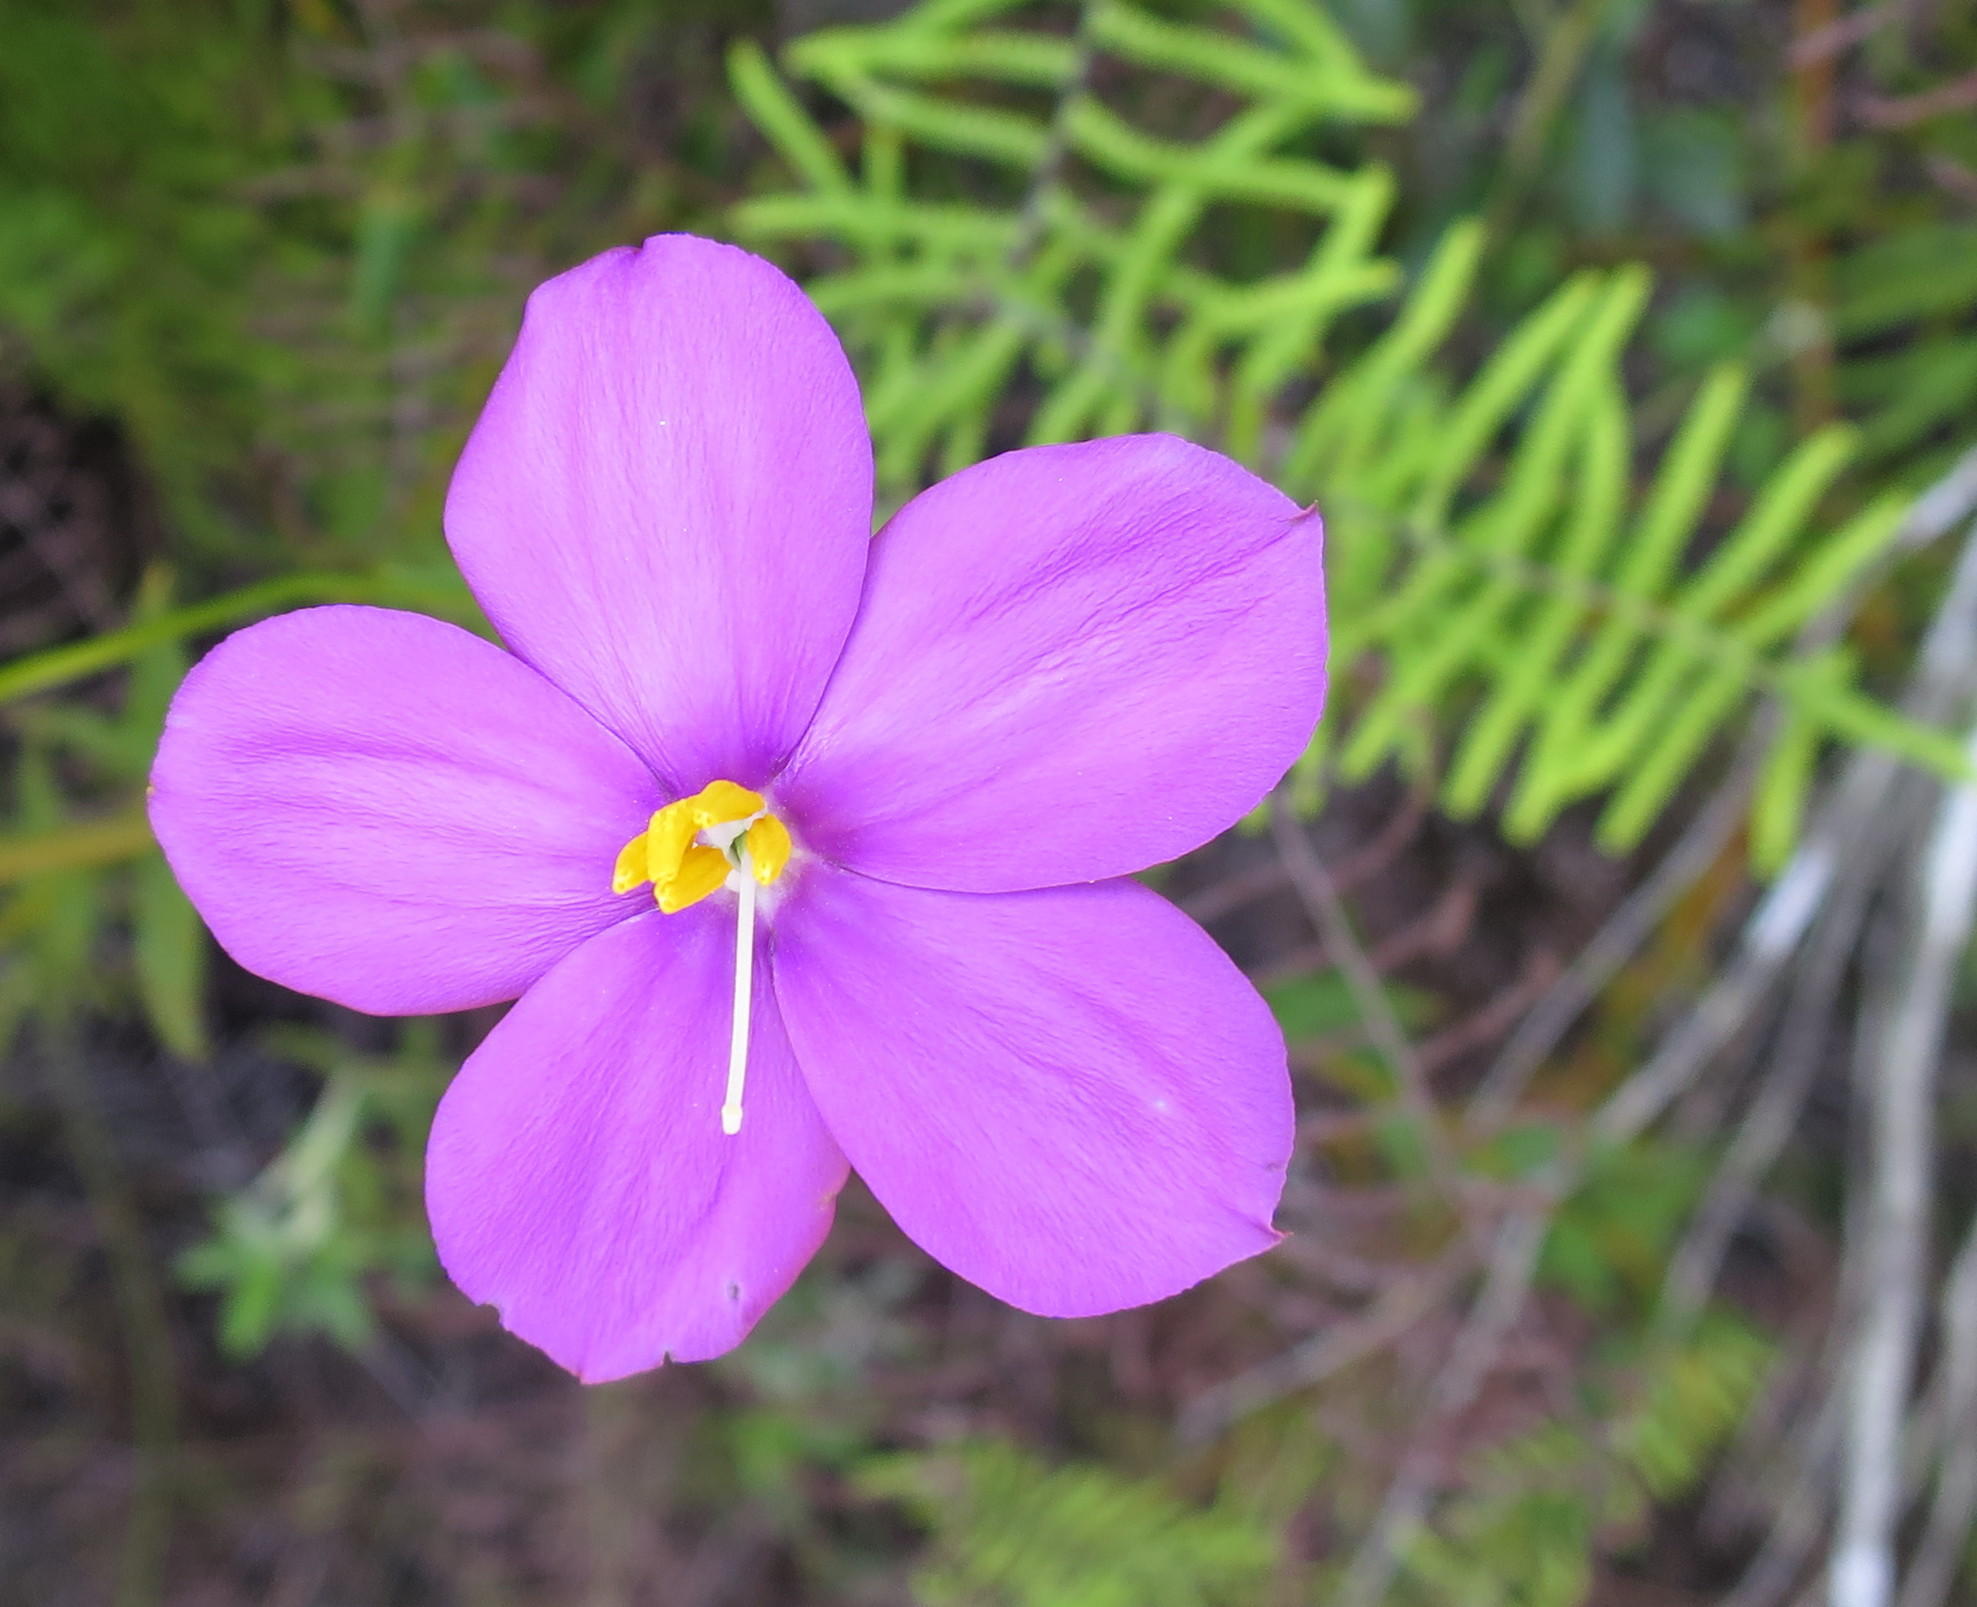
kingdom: Plantae
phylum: Tracheophyta
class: Magnoliopsida
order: Gentianales
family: Gentianaceae
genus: Chironia
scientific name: Chironia melampyrifolia
